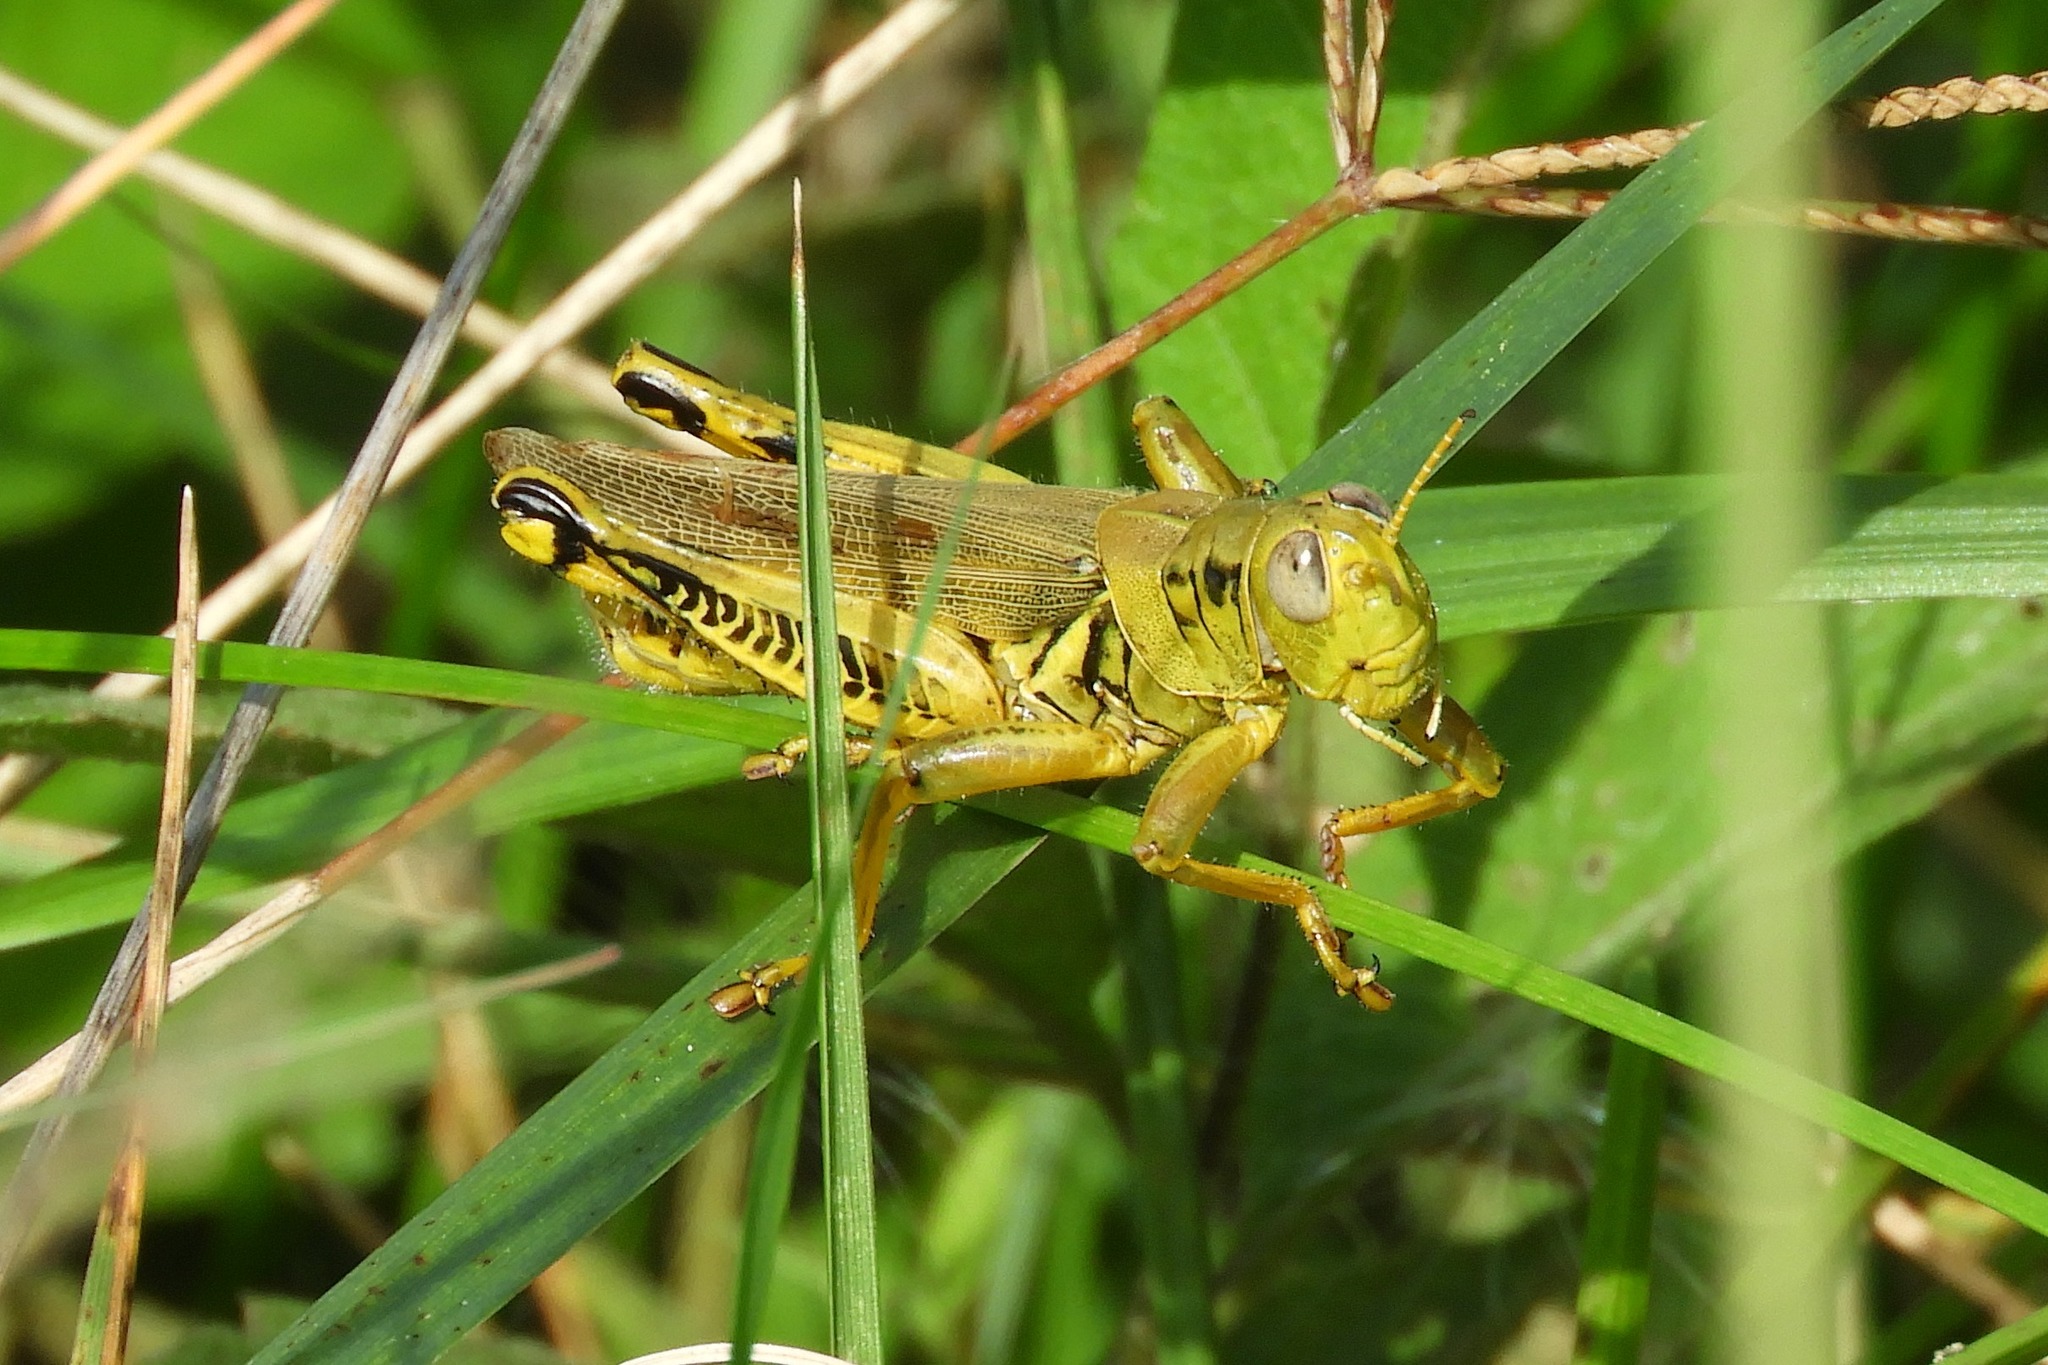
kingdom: Animalia
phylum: Arthropoda
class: Insecta
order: Orthoptera
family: Acrididae
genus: Melanoplus
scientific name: Melanoplus differentialis
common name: Differential grasshopper
